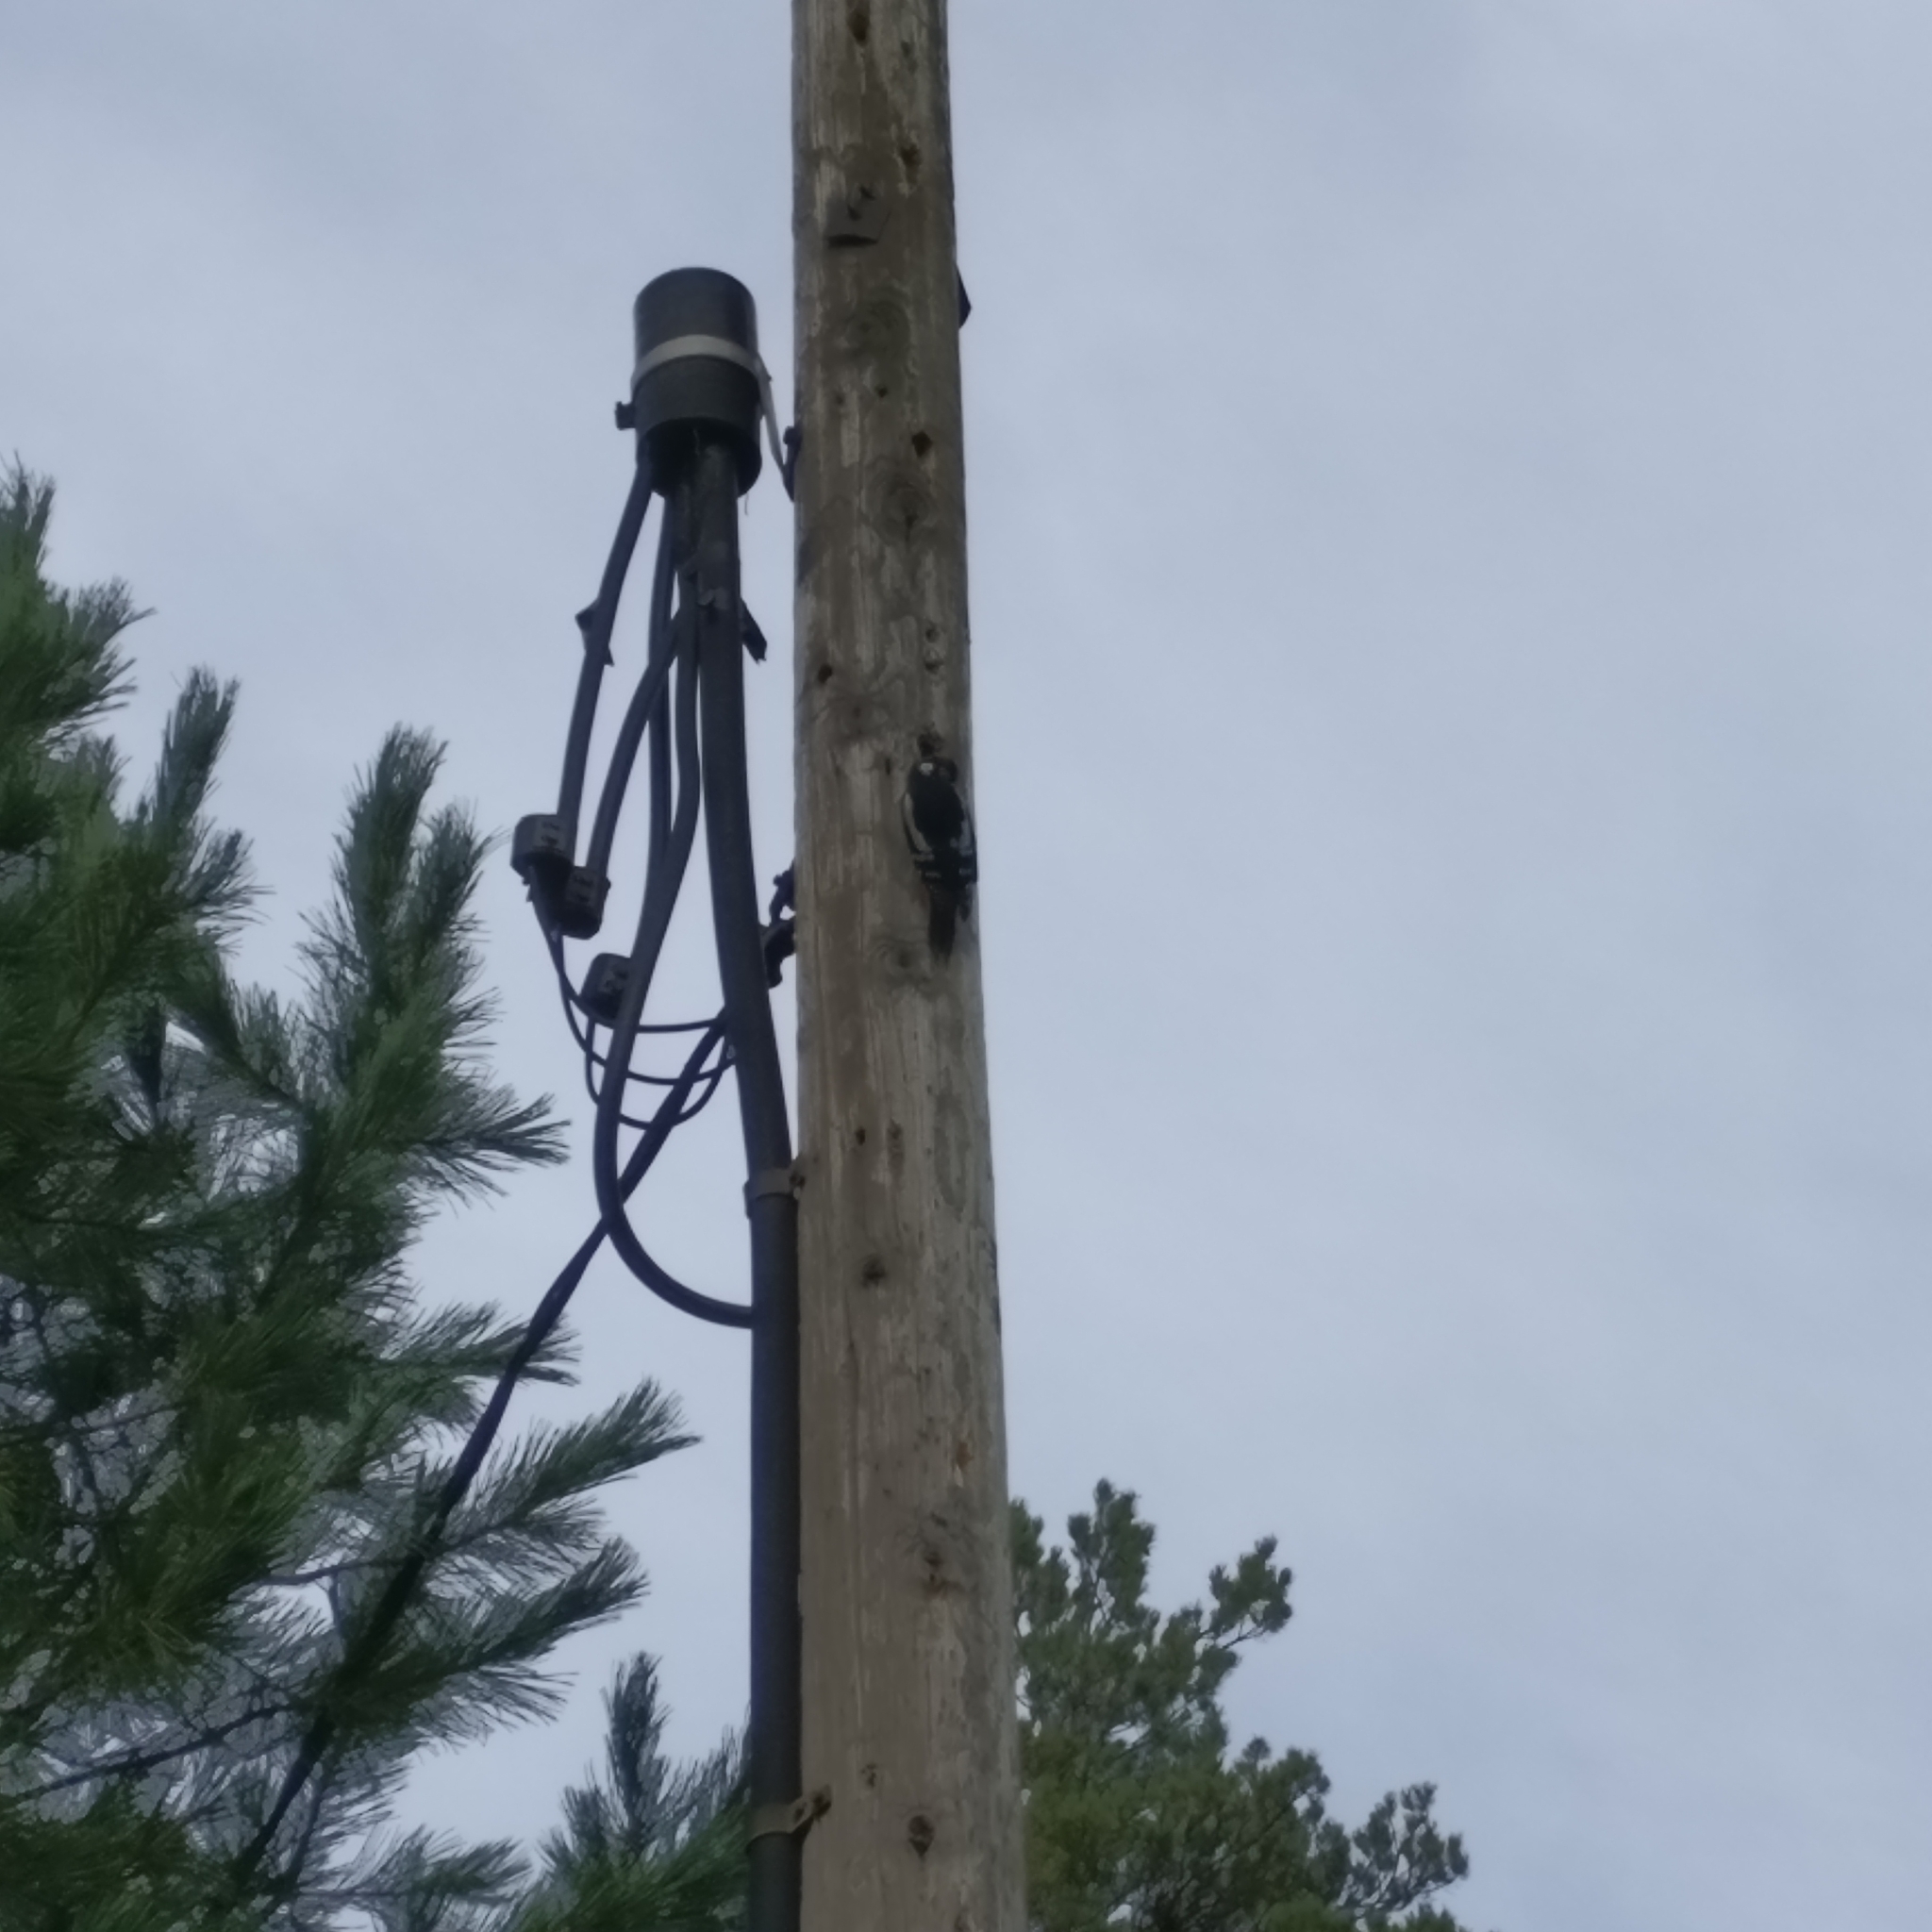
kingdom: Animalia
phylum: Chordata
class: Aves
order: Piciformes
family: Picidae
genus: Dendrocopos
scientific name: Dendrocopos major
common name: Great spotted woodpecker
